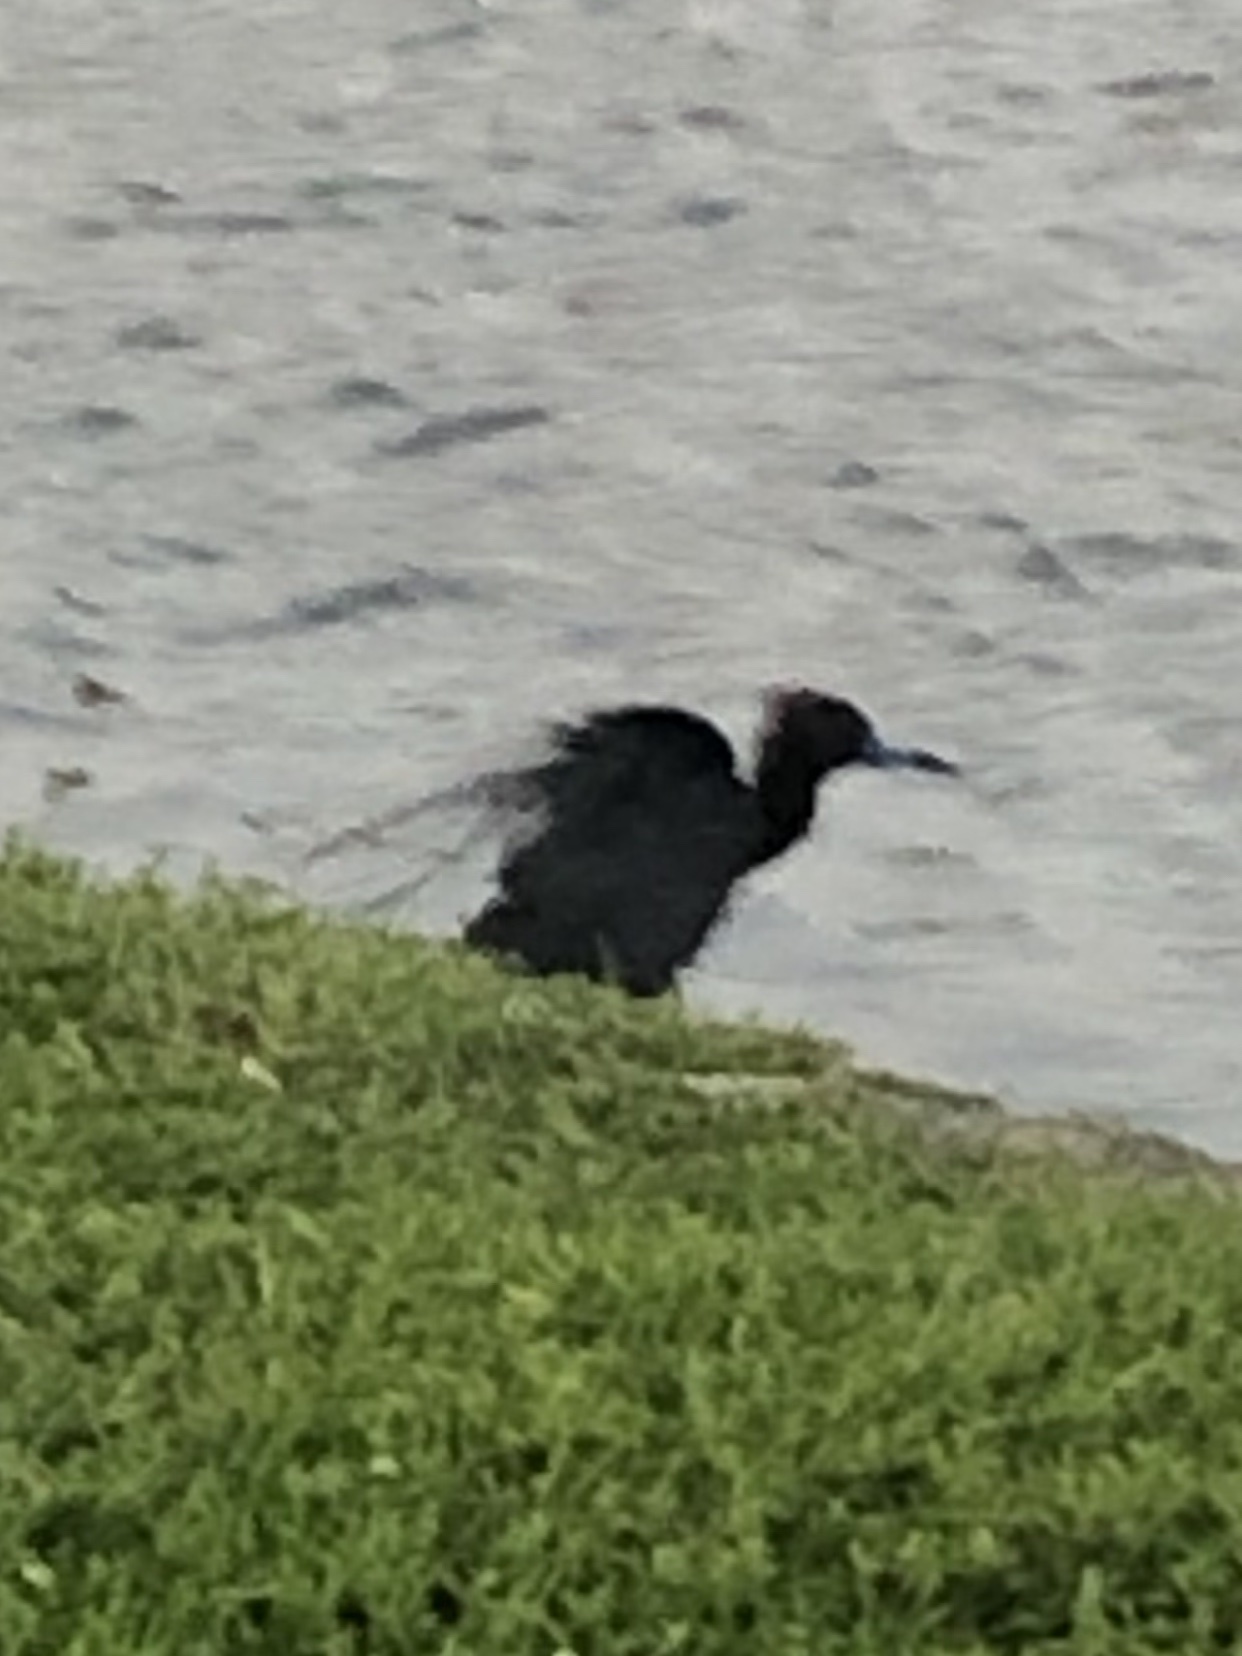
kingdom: Animalia
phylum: Chordata
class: Aves
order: Pelecaniformes
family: Ardeidae
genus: Egretta
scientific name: Egretta caerulea
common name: Little blue heron
